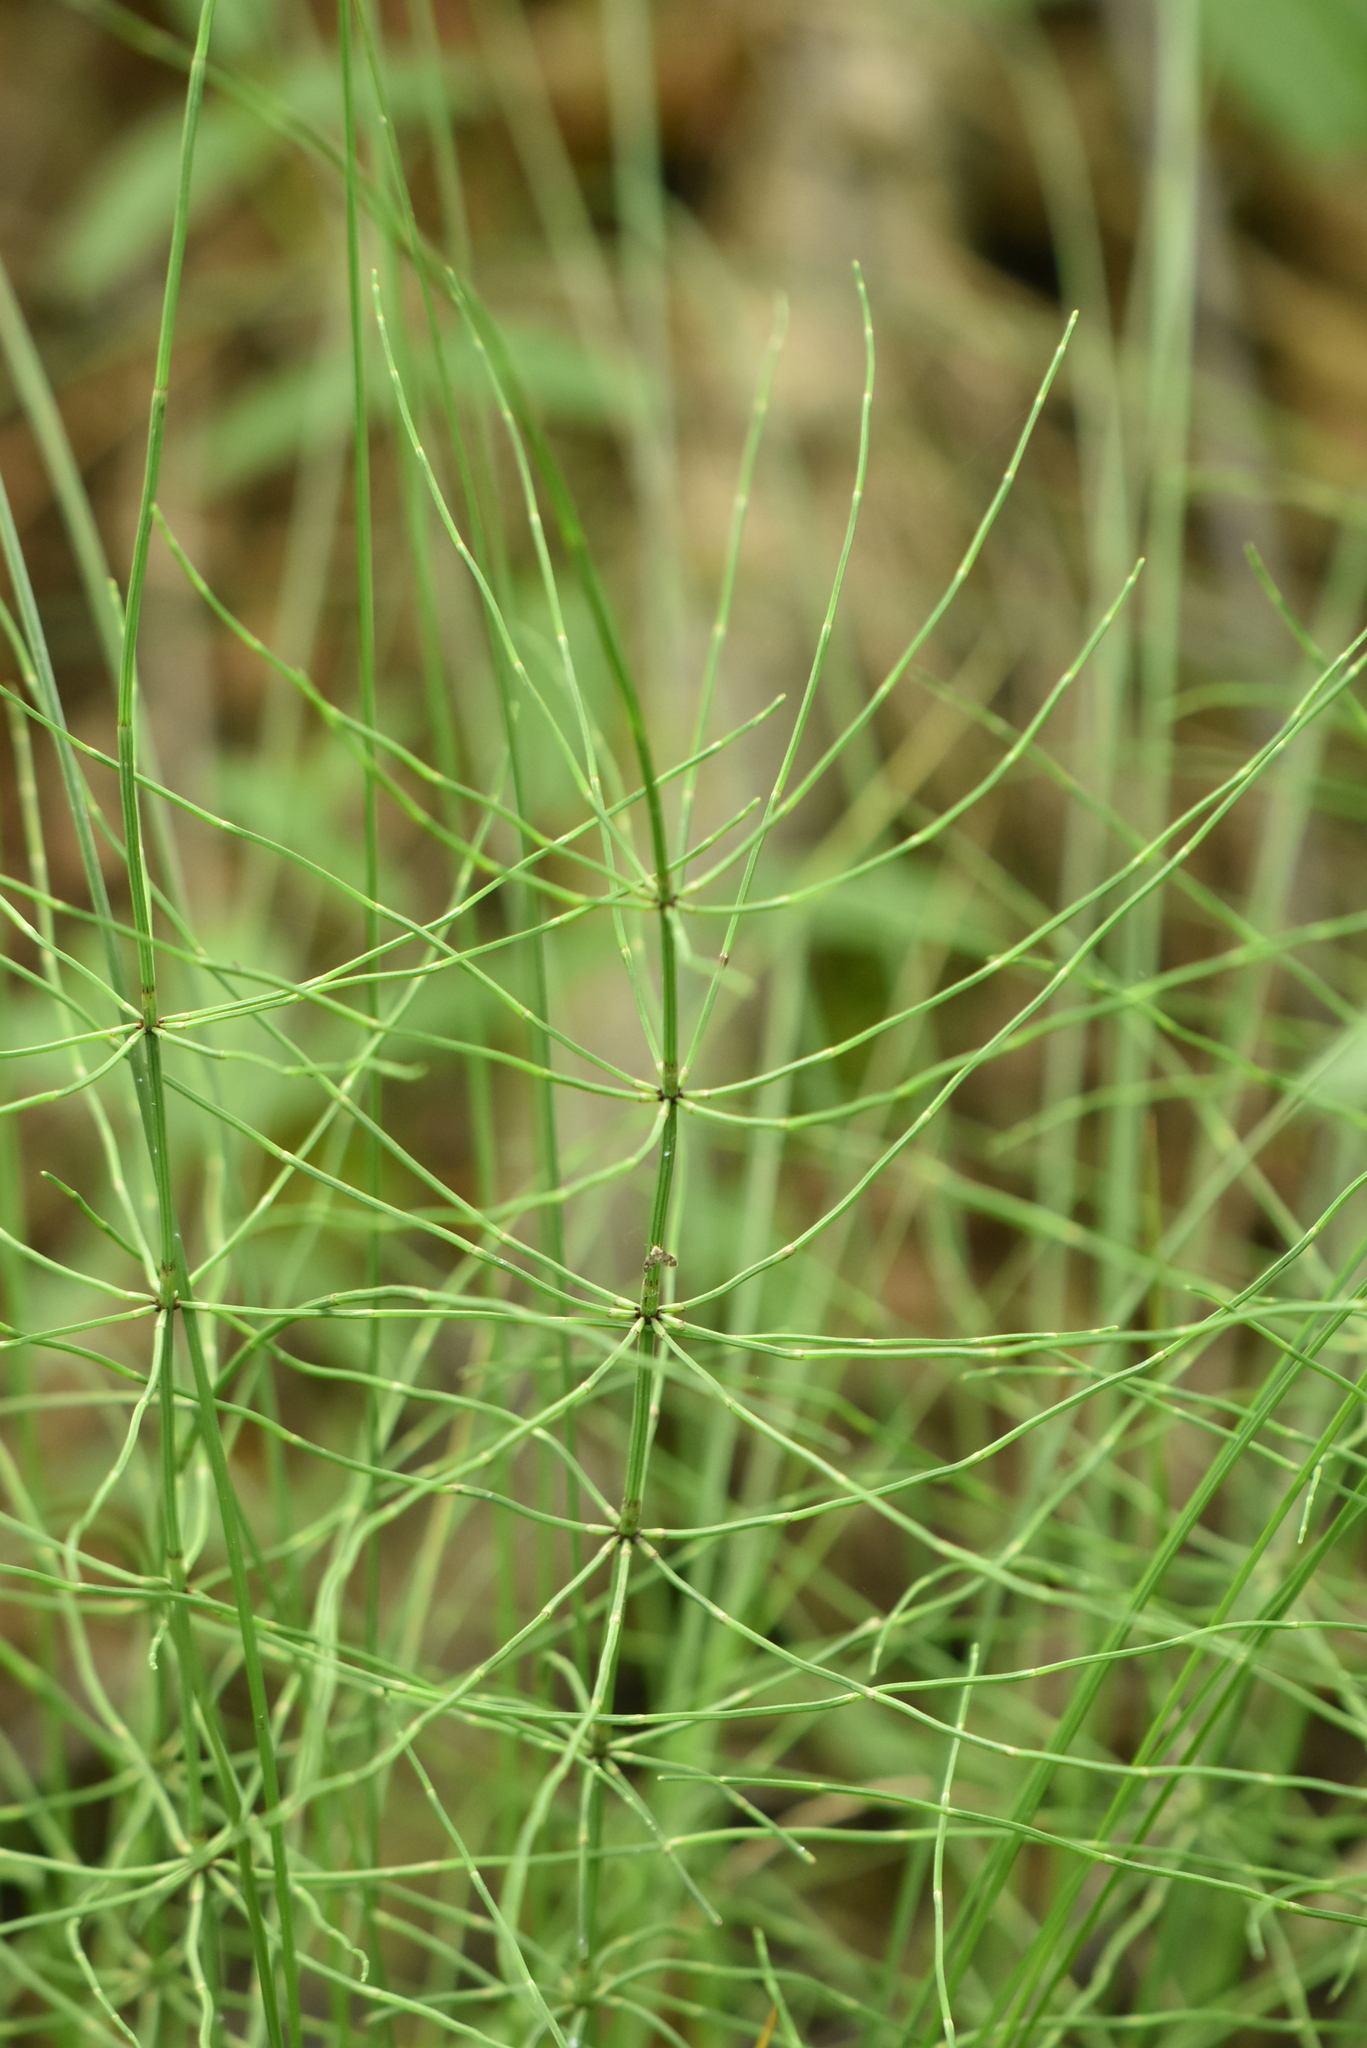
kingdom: Plantae
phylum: Tracheophyta
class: Polypodiopsida
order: Equisetales
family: Equisetaceae
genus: Equisetum
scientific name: Equisetum palustre
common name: Marsh horsetail
